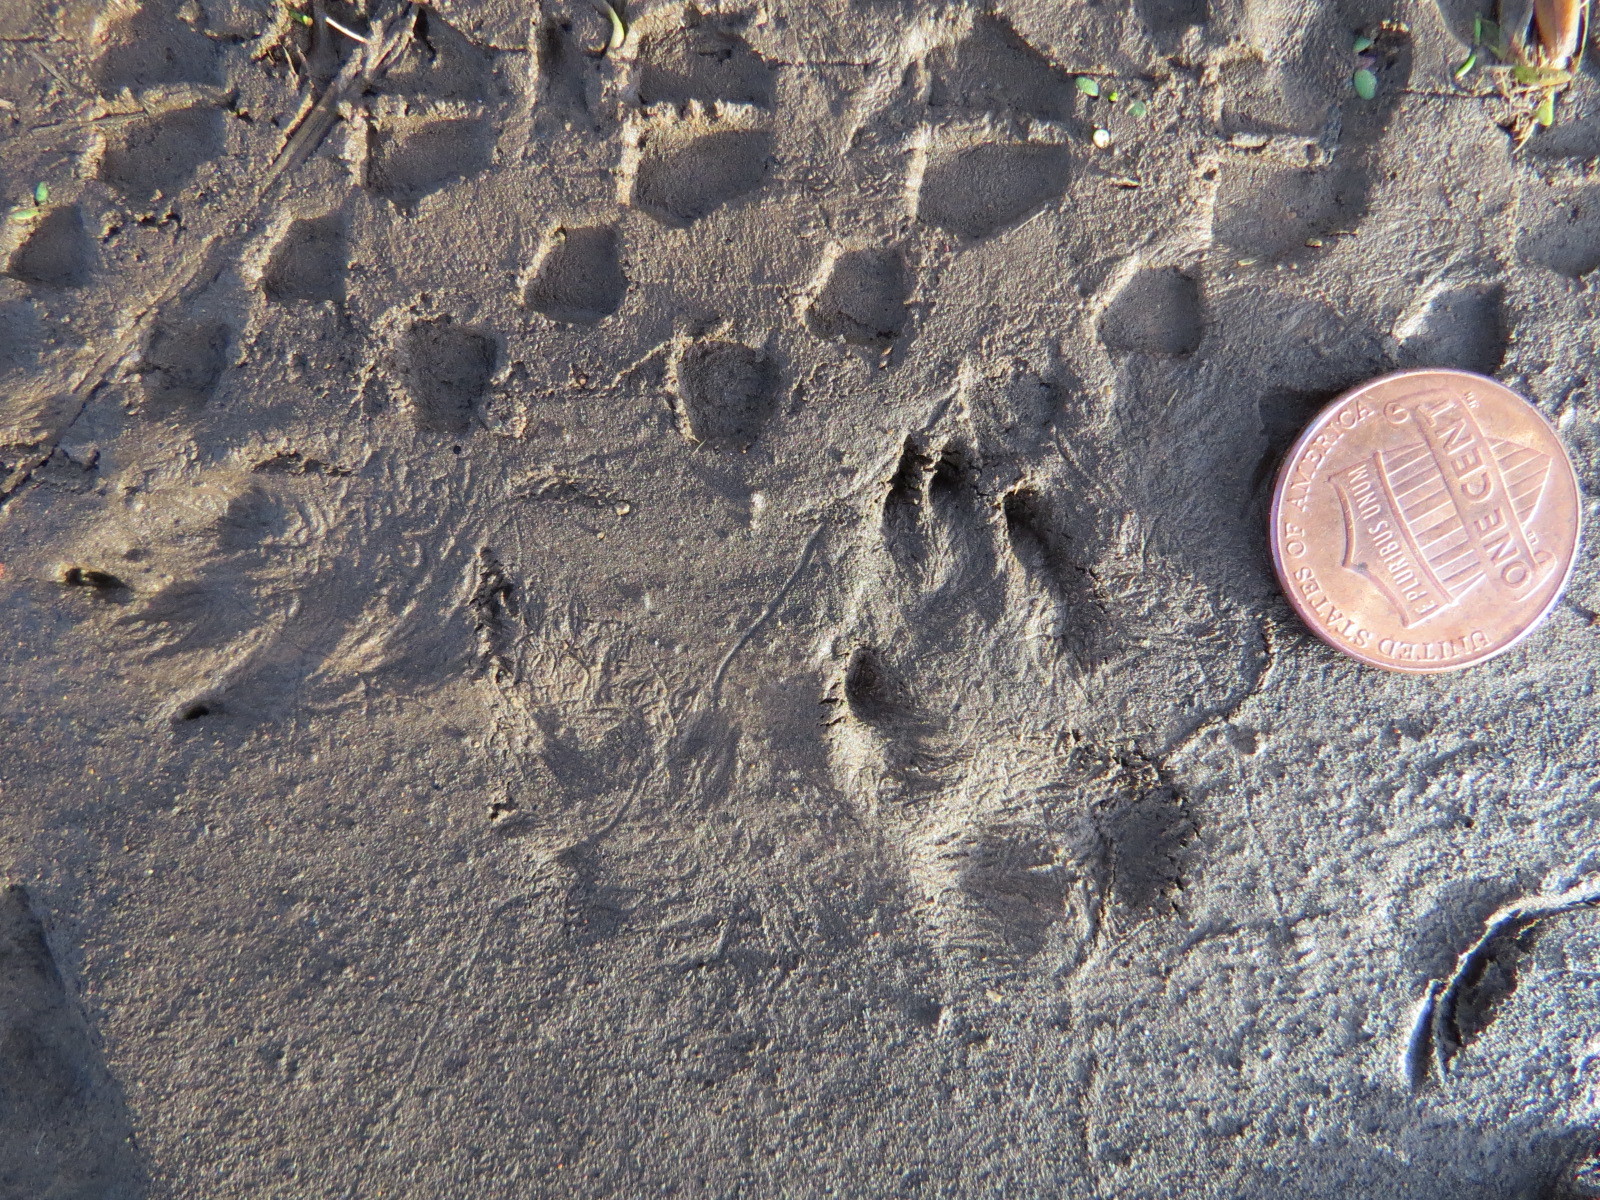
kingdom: Animalia
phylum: Chordata
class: Mammalia
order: Lagomorpha
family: Leporidae
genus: Sylvilagus
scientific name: Sylvilagus bachmani
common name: Brush rabbit
